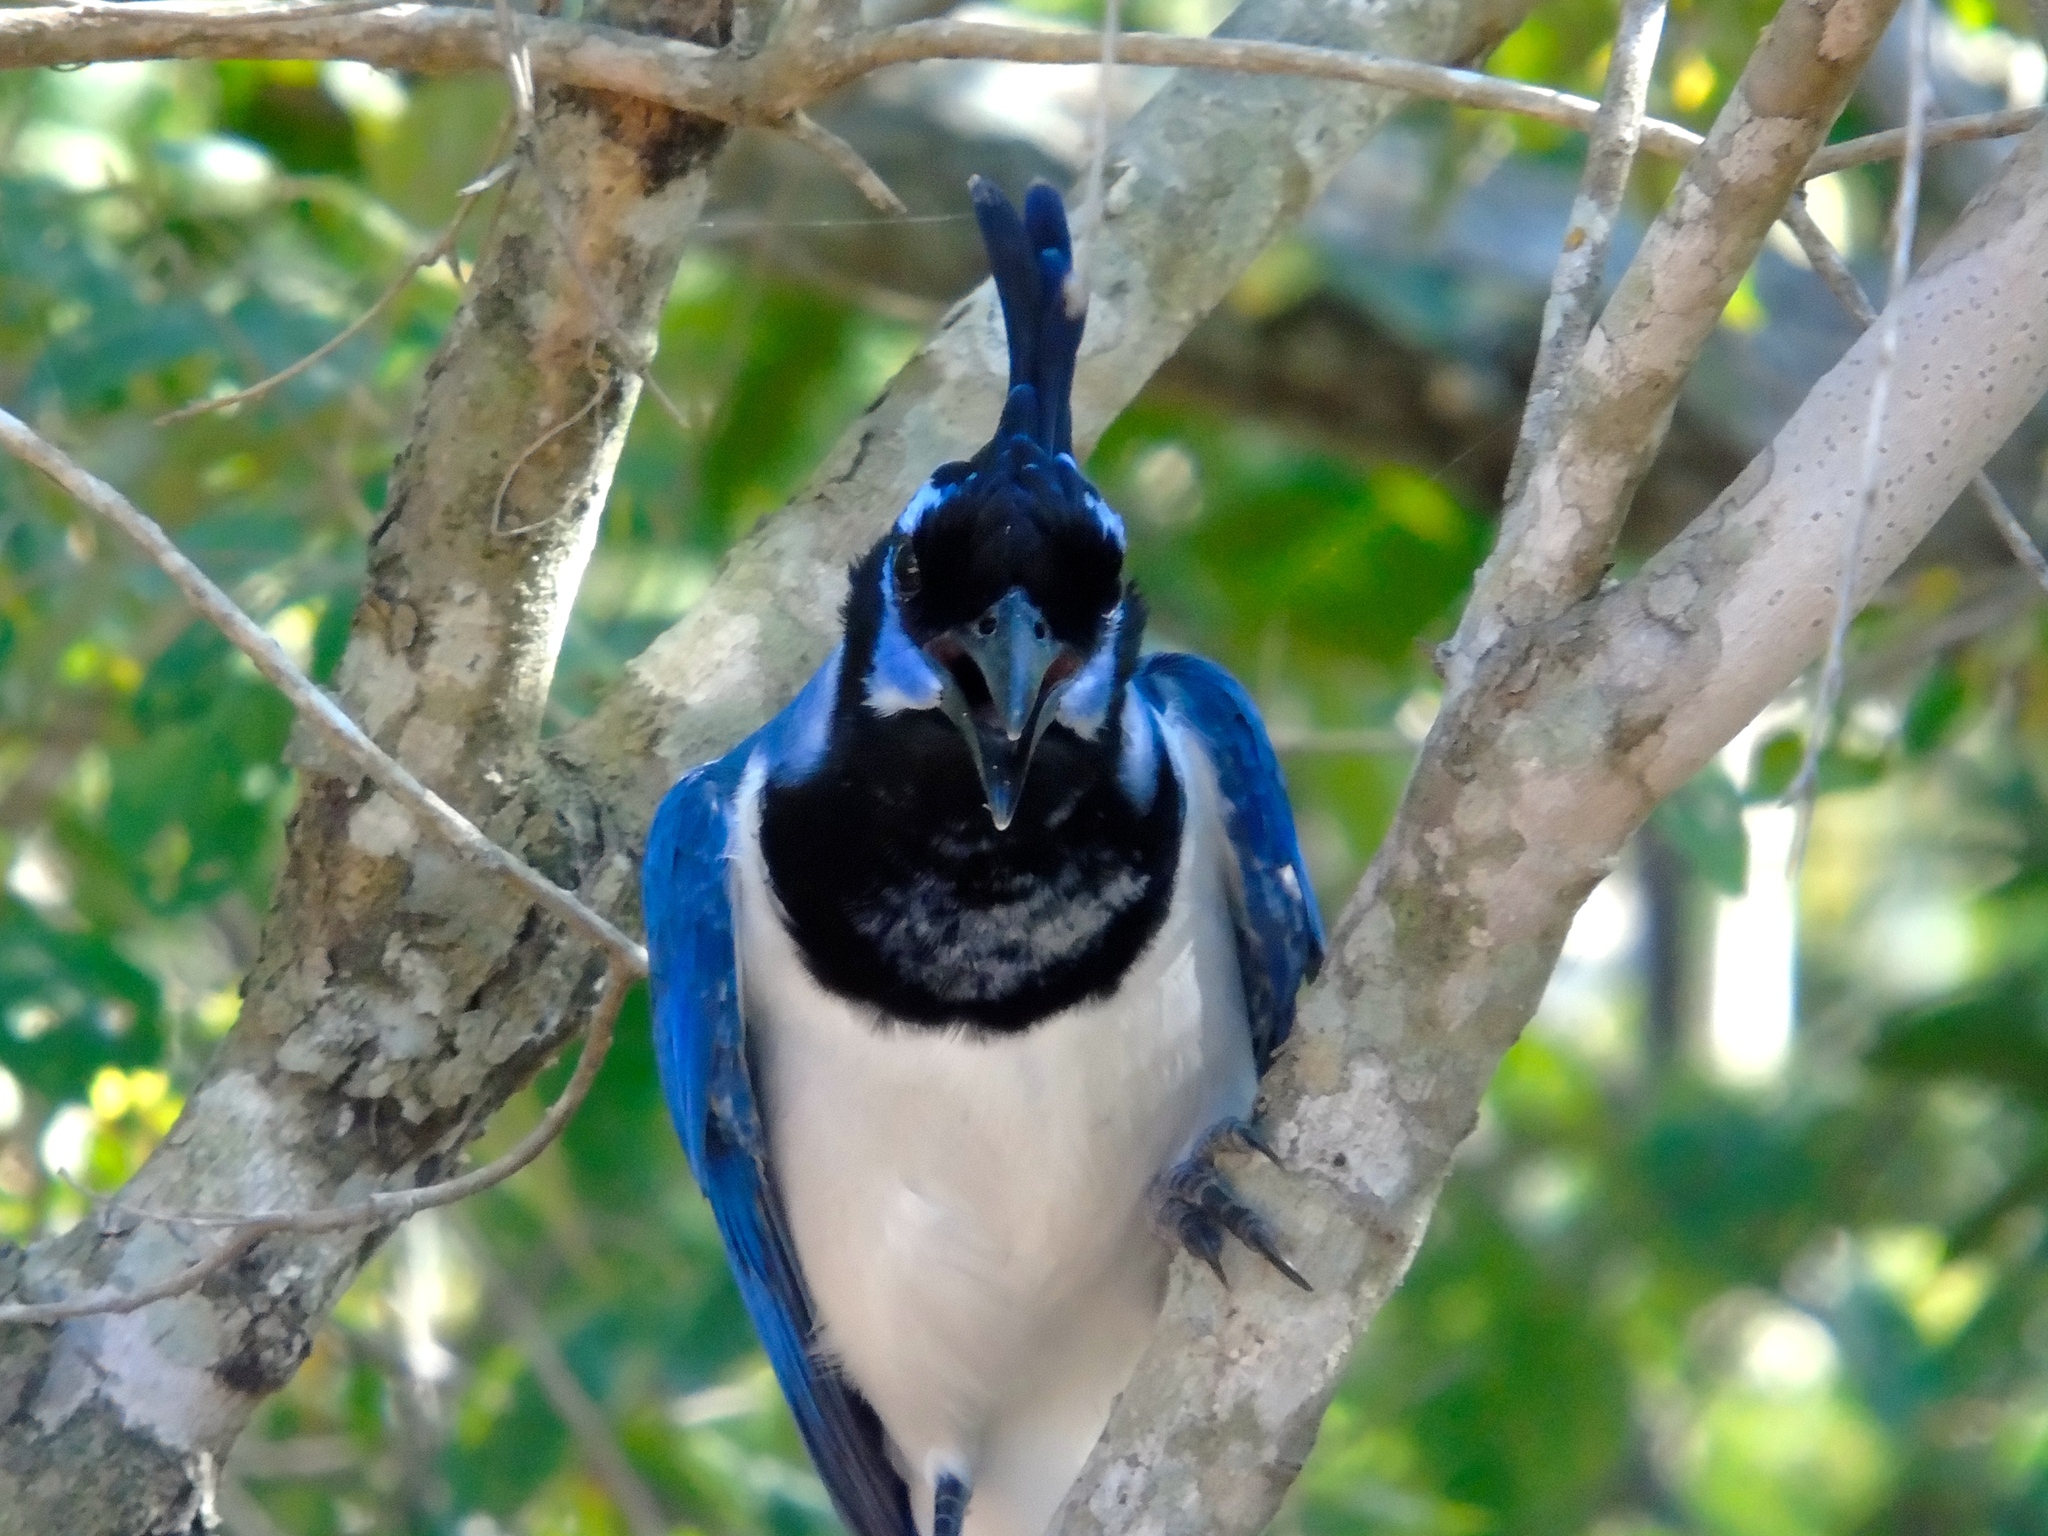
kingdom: Animalia
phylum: Chordata
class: Aves
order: Passeriformes
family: Corvidae
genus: Calocitta
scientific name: Calocitta colliei
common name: Black-throated magpie-jay
